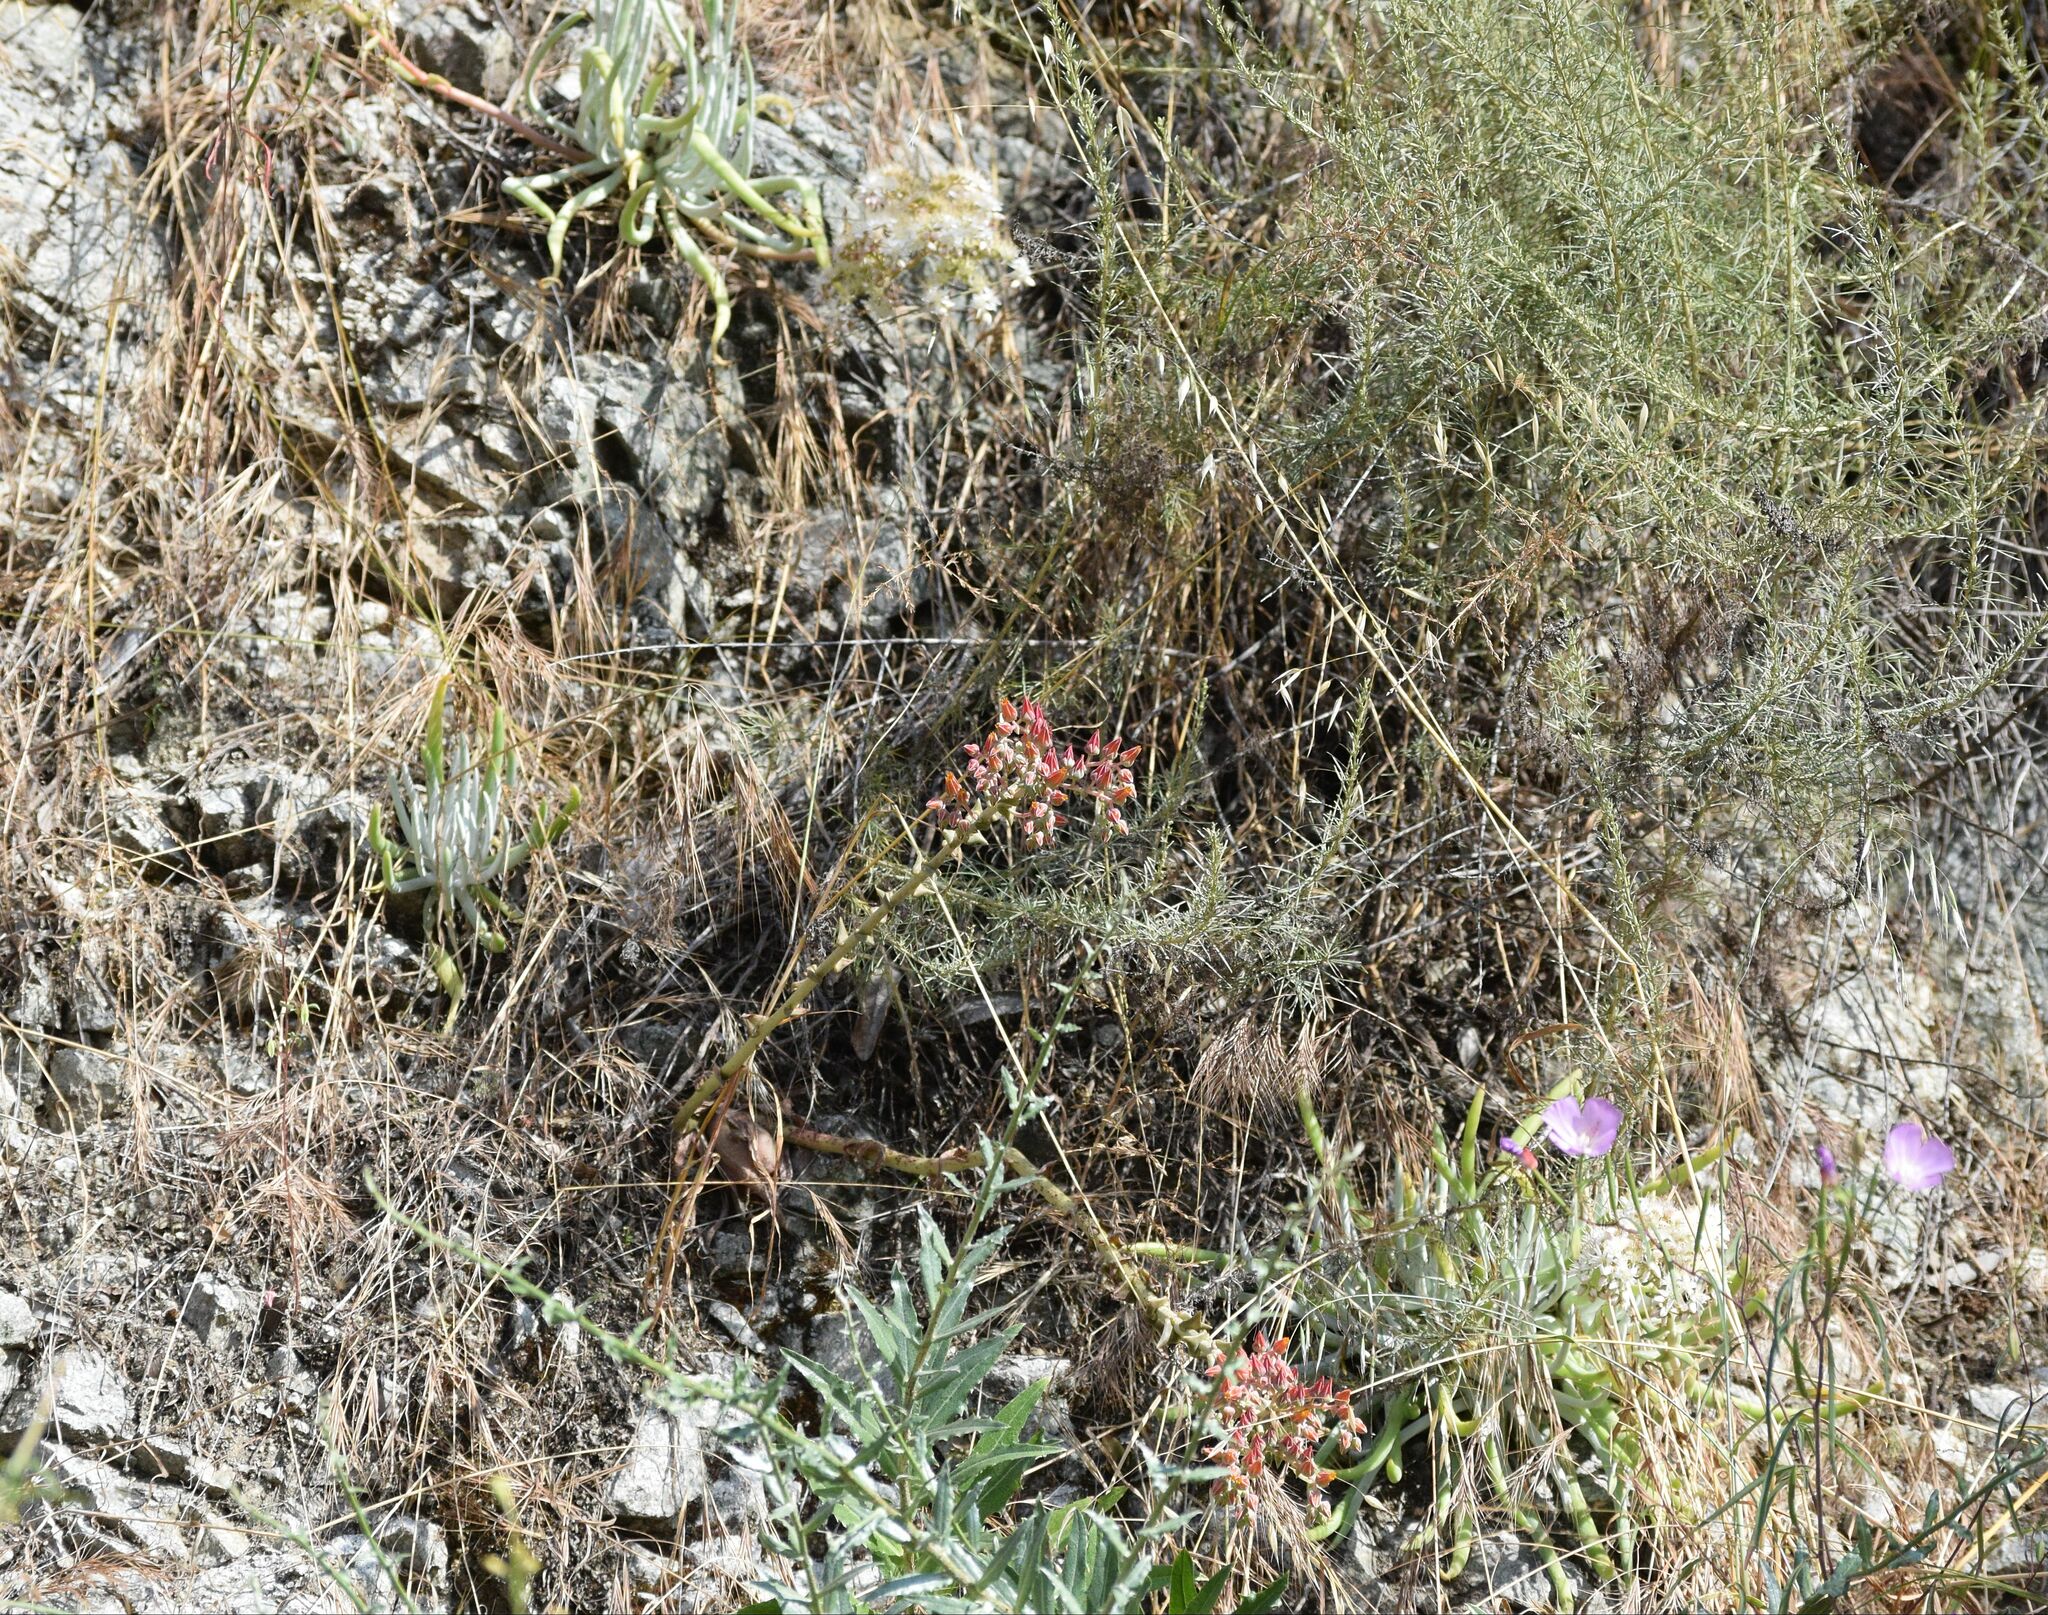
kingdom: Plantae
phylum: Tracheophyta
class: Magnoliopsida
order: Saxifragales
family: Crassulaceae
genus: Dudleya
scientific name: Dudleya lanceolata
